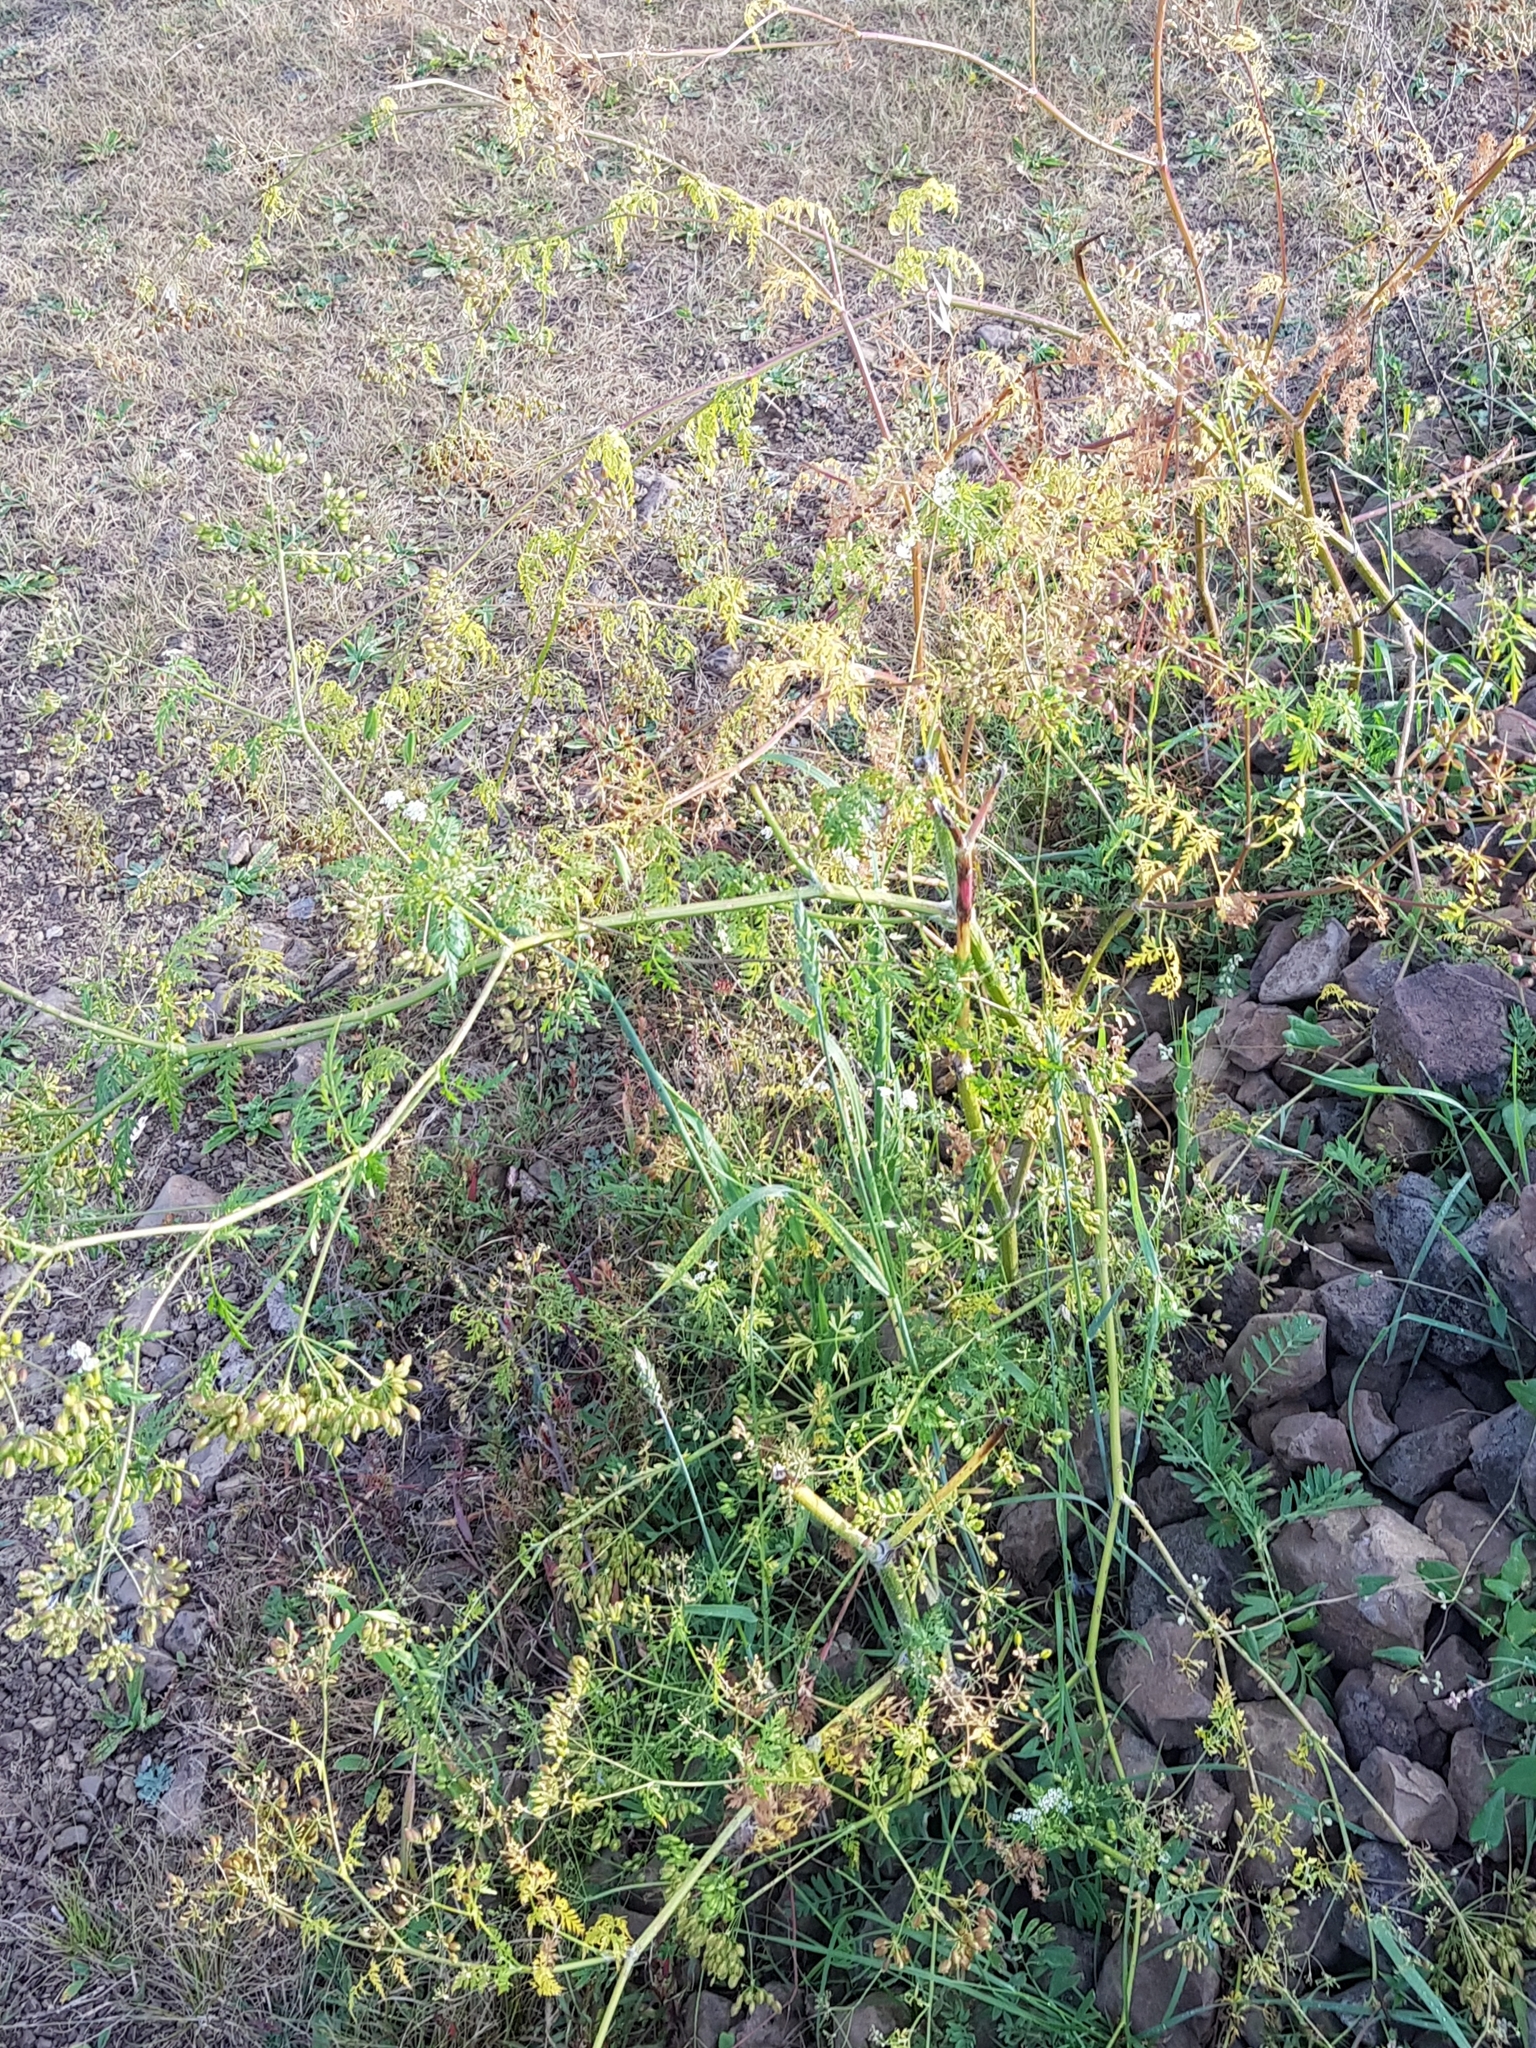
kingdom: Plantae
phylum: Tracheophyta
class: Magnoliopsida
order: Apiales
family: Apiaceae
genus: Sphallerocarpus
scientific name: Sphallerocarpus gracilis
